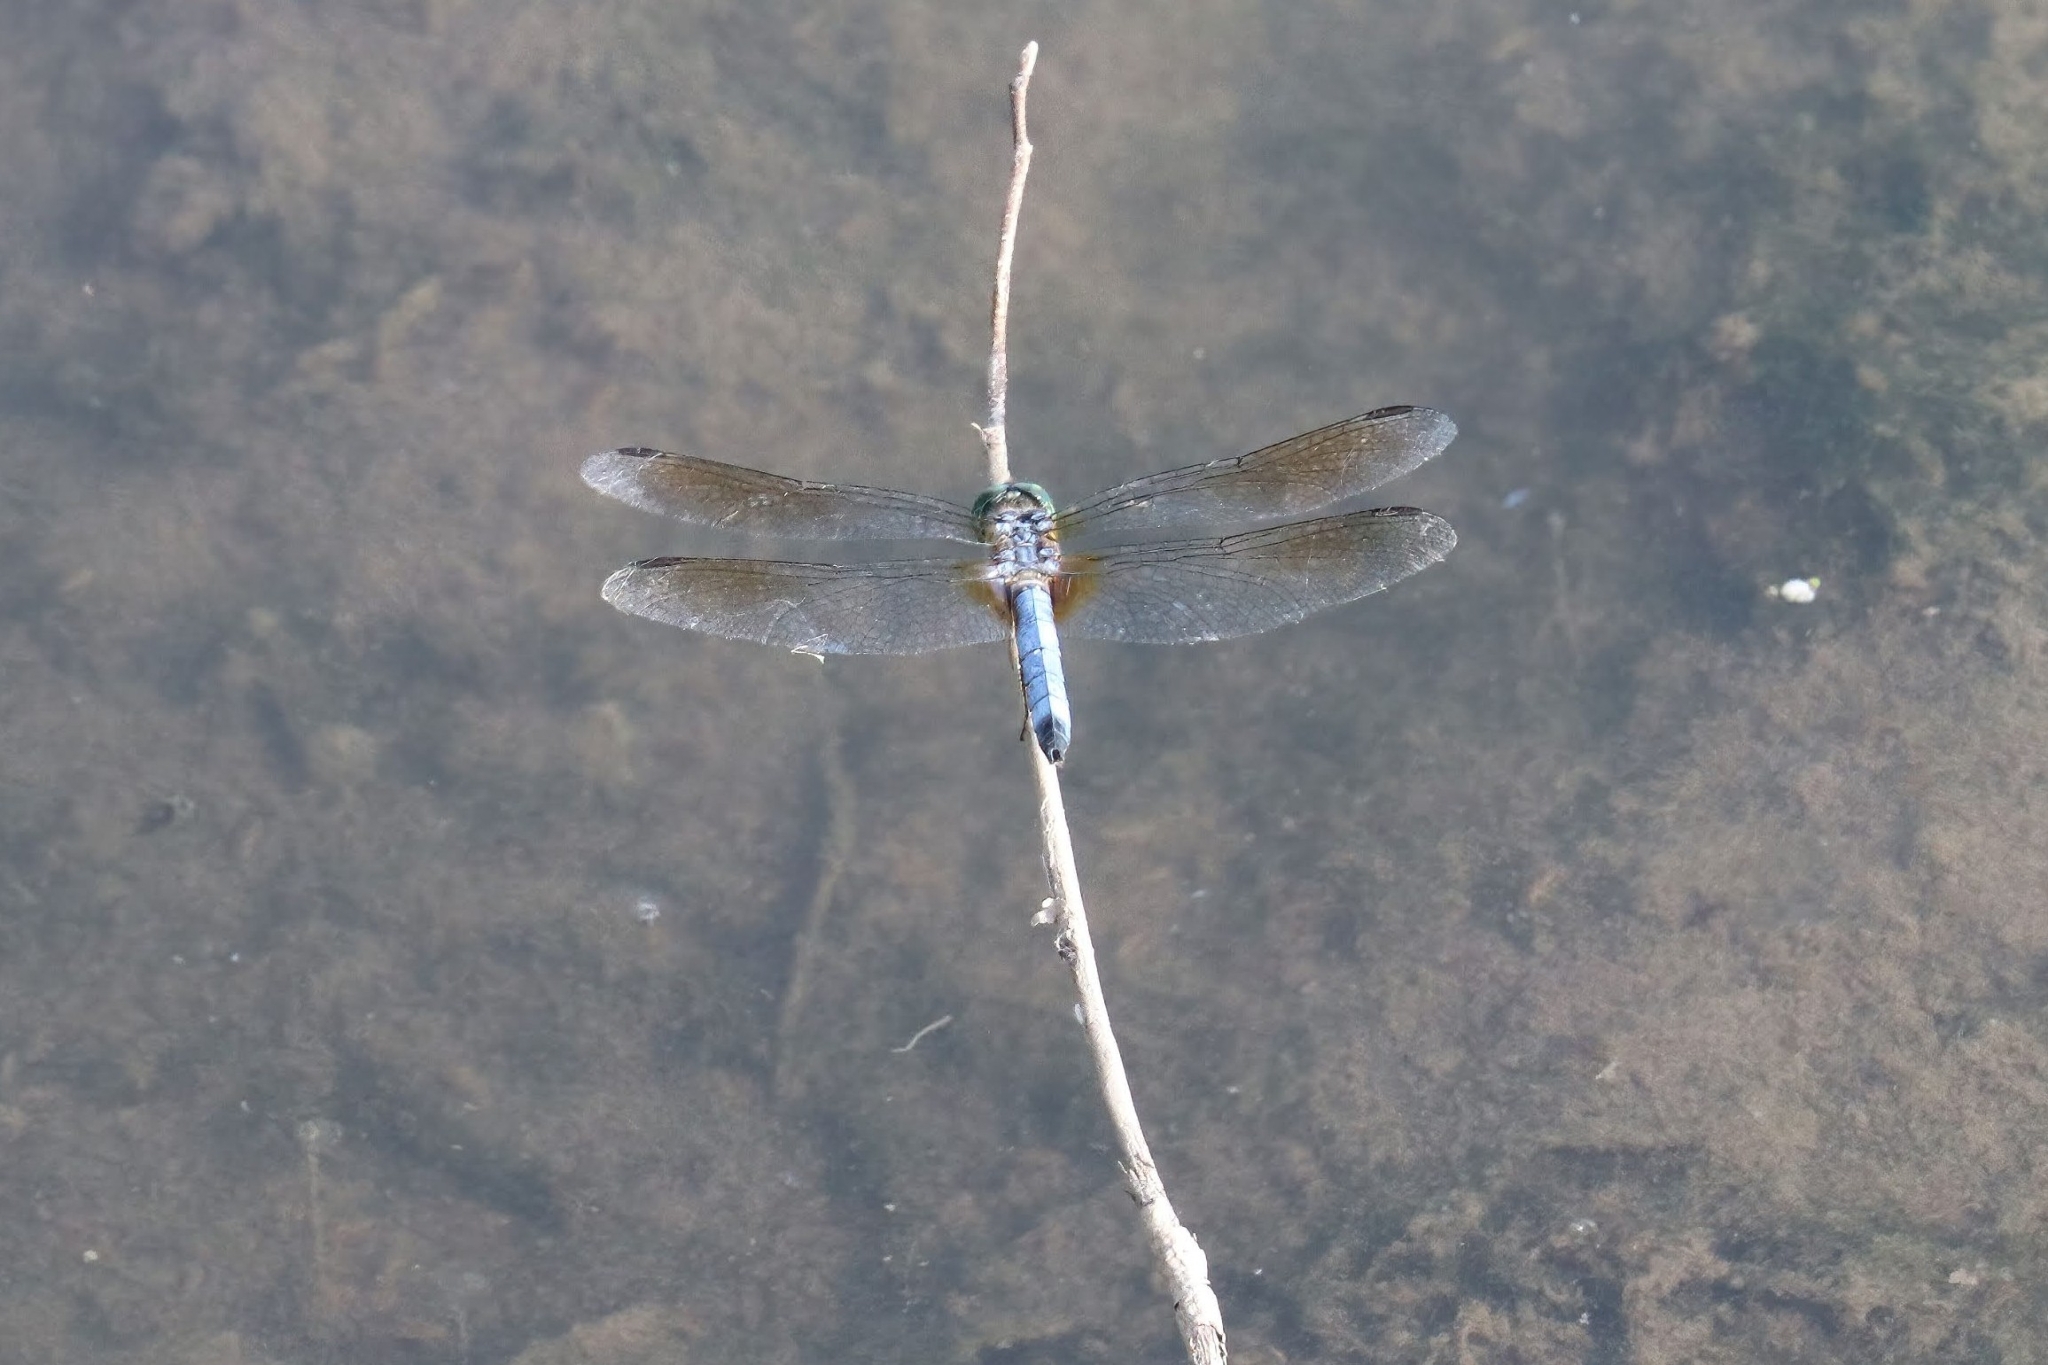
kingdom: Animalia
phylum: Arthropoda
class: Insecta
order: Odonata
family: Libellulidae
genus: Pachydiplax
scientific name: Pachydiplax longipennis
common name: Blue dasher
